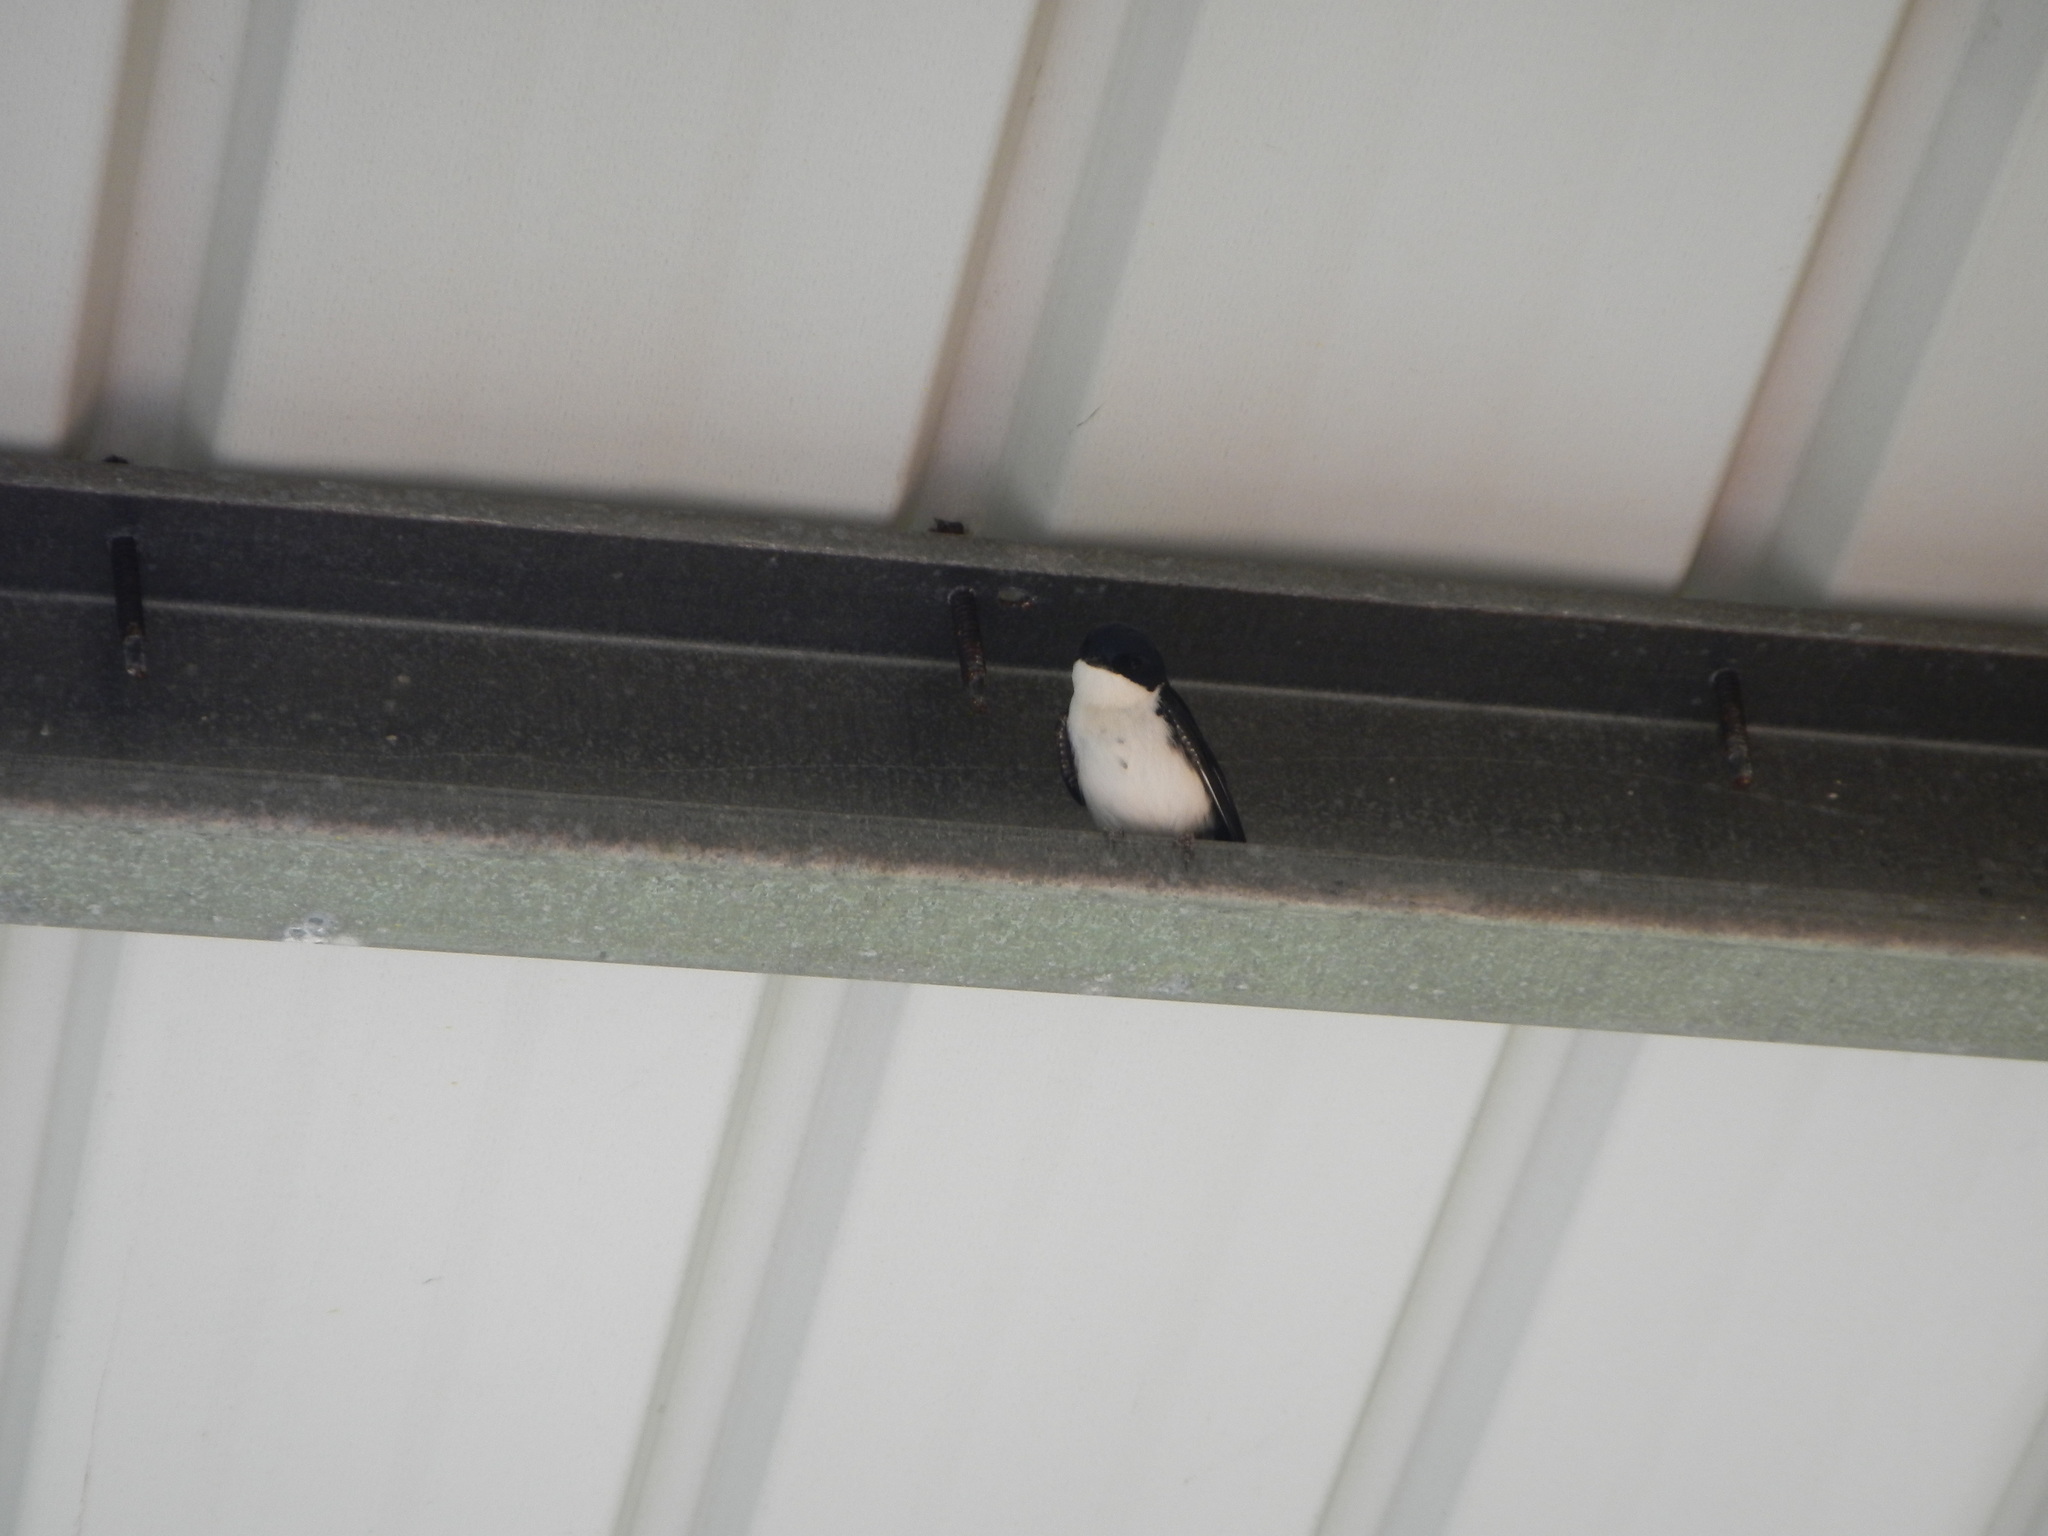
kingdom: Animalia
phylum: Chordata
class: Aves
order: Passeriformes
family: Hirundinidae
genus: Notiochelidon
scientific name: Notiochelidon cyanoleuca
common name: Blue-and-white swallow
